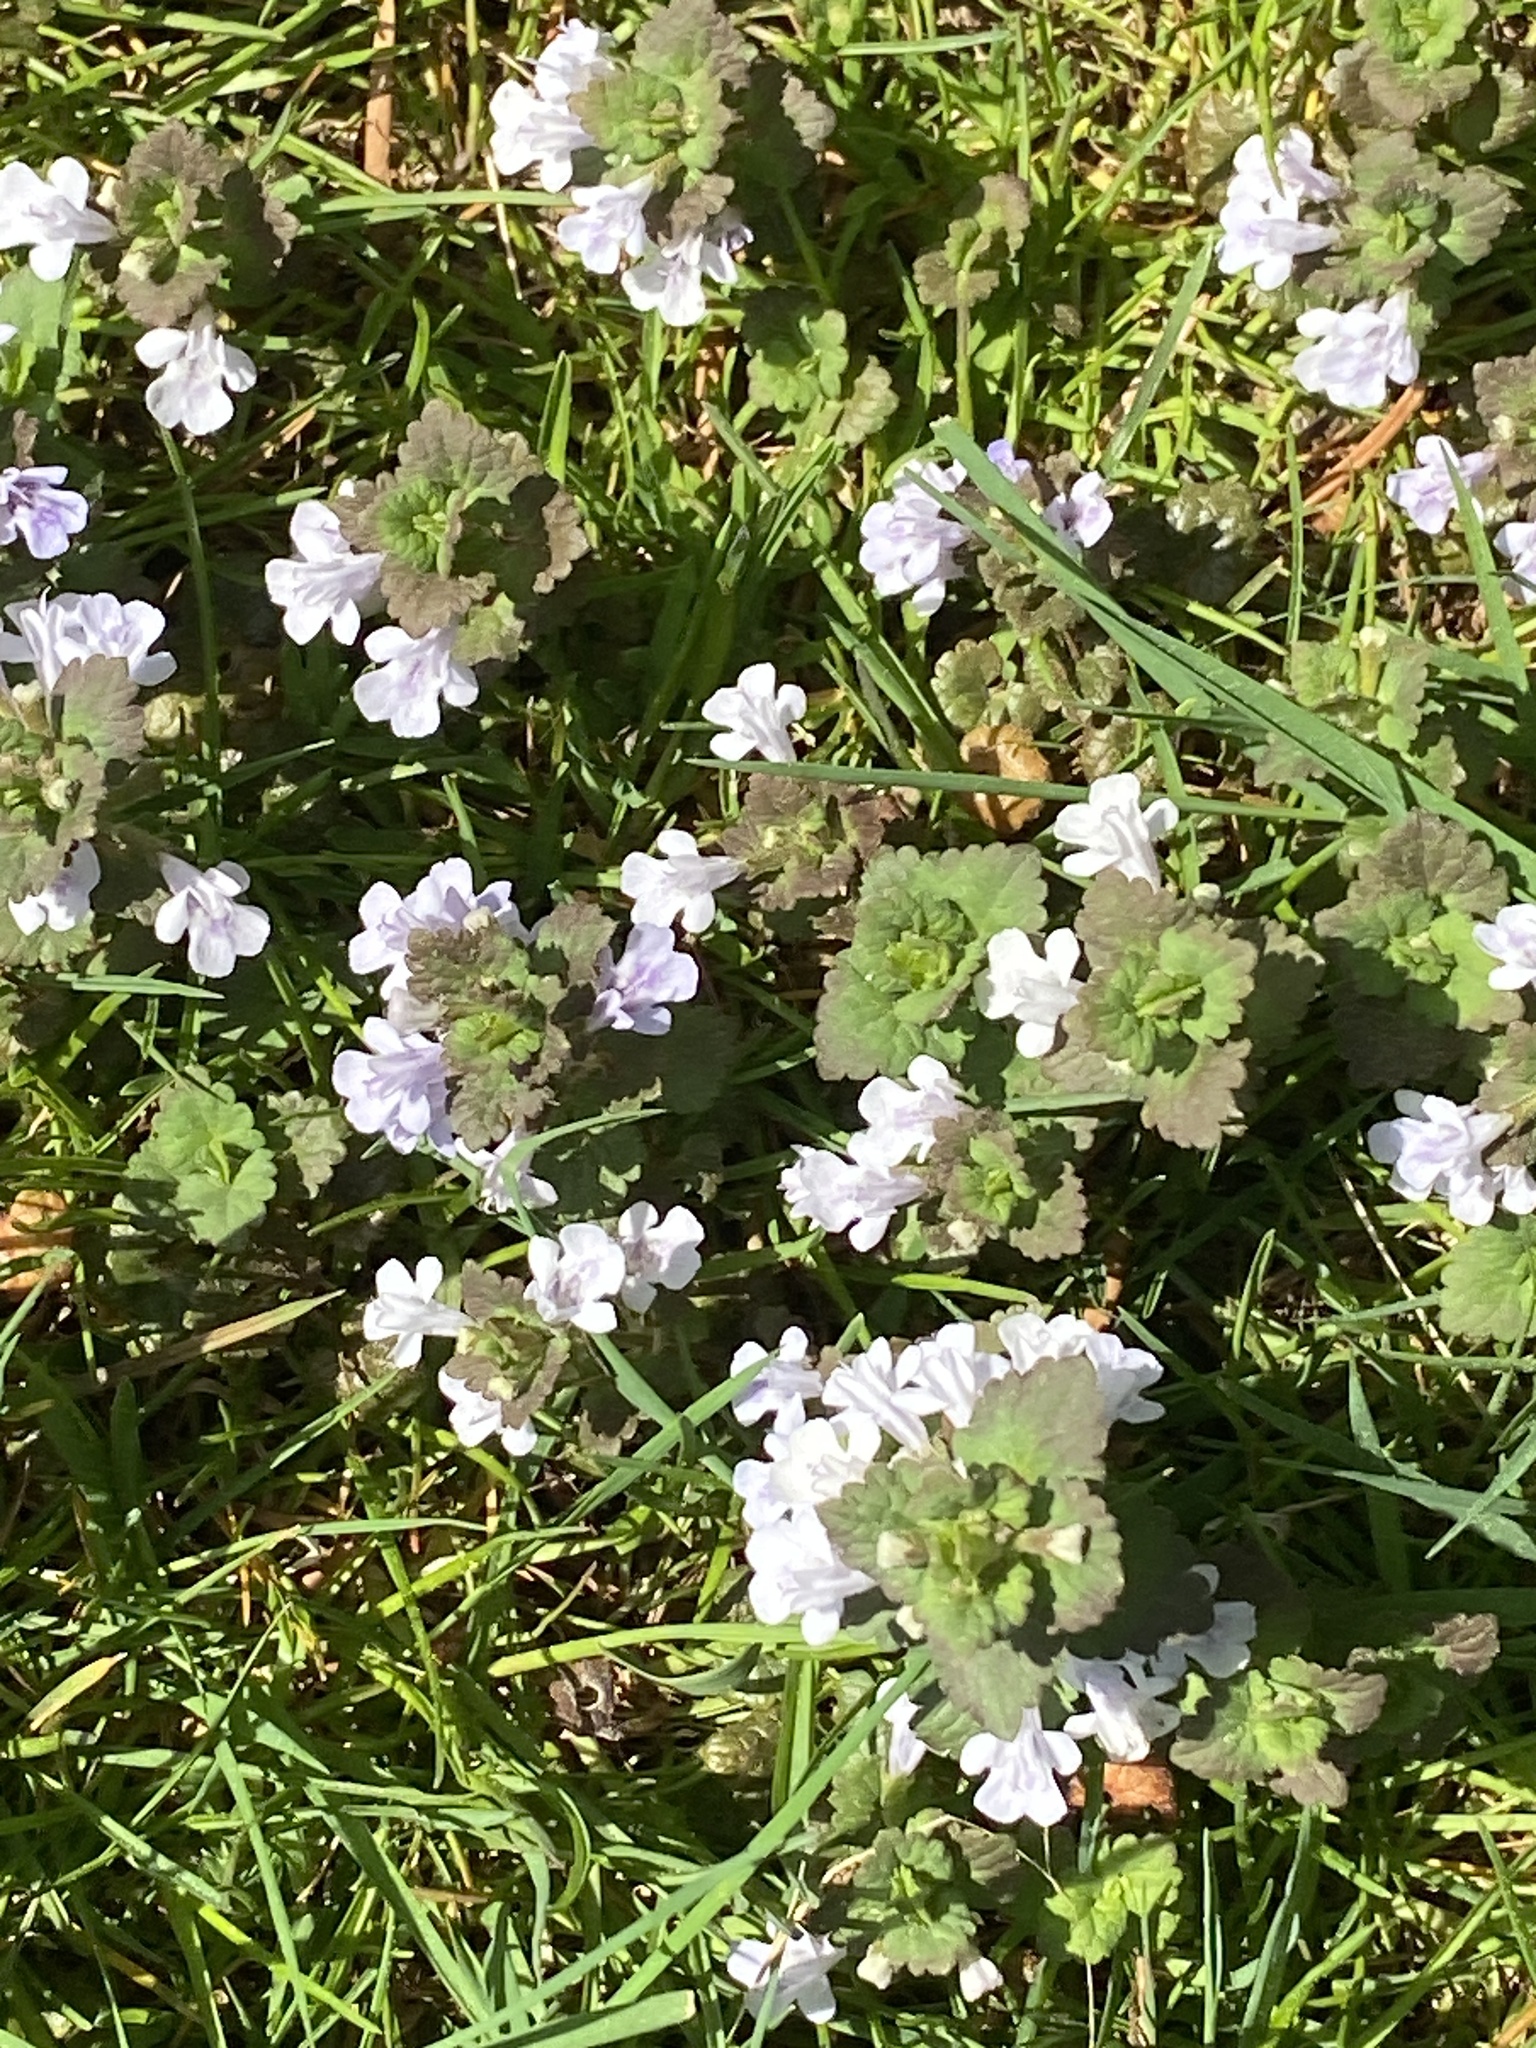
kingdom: Plantae
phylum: Tracheophyta
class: Magnoliopsida
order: Lamiales
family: Lamiaceae
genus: Glechoma
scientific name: Glechoma hederacea
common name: Ground ivy
